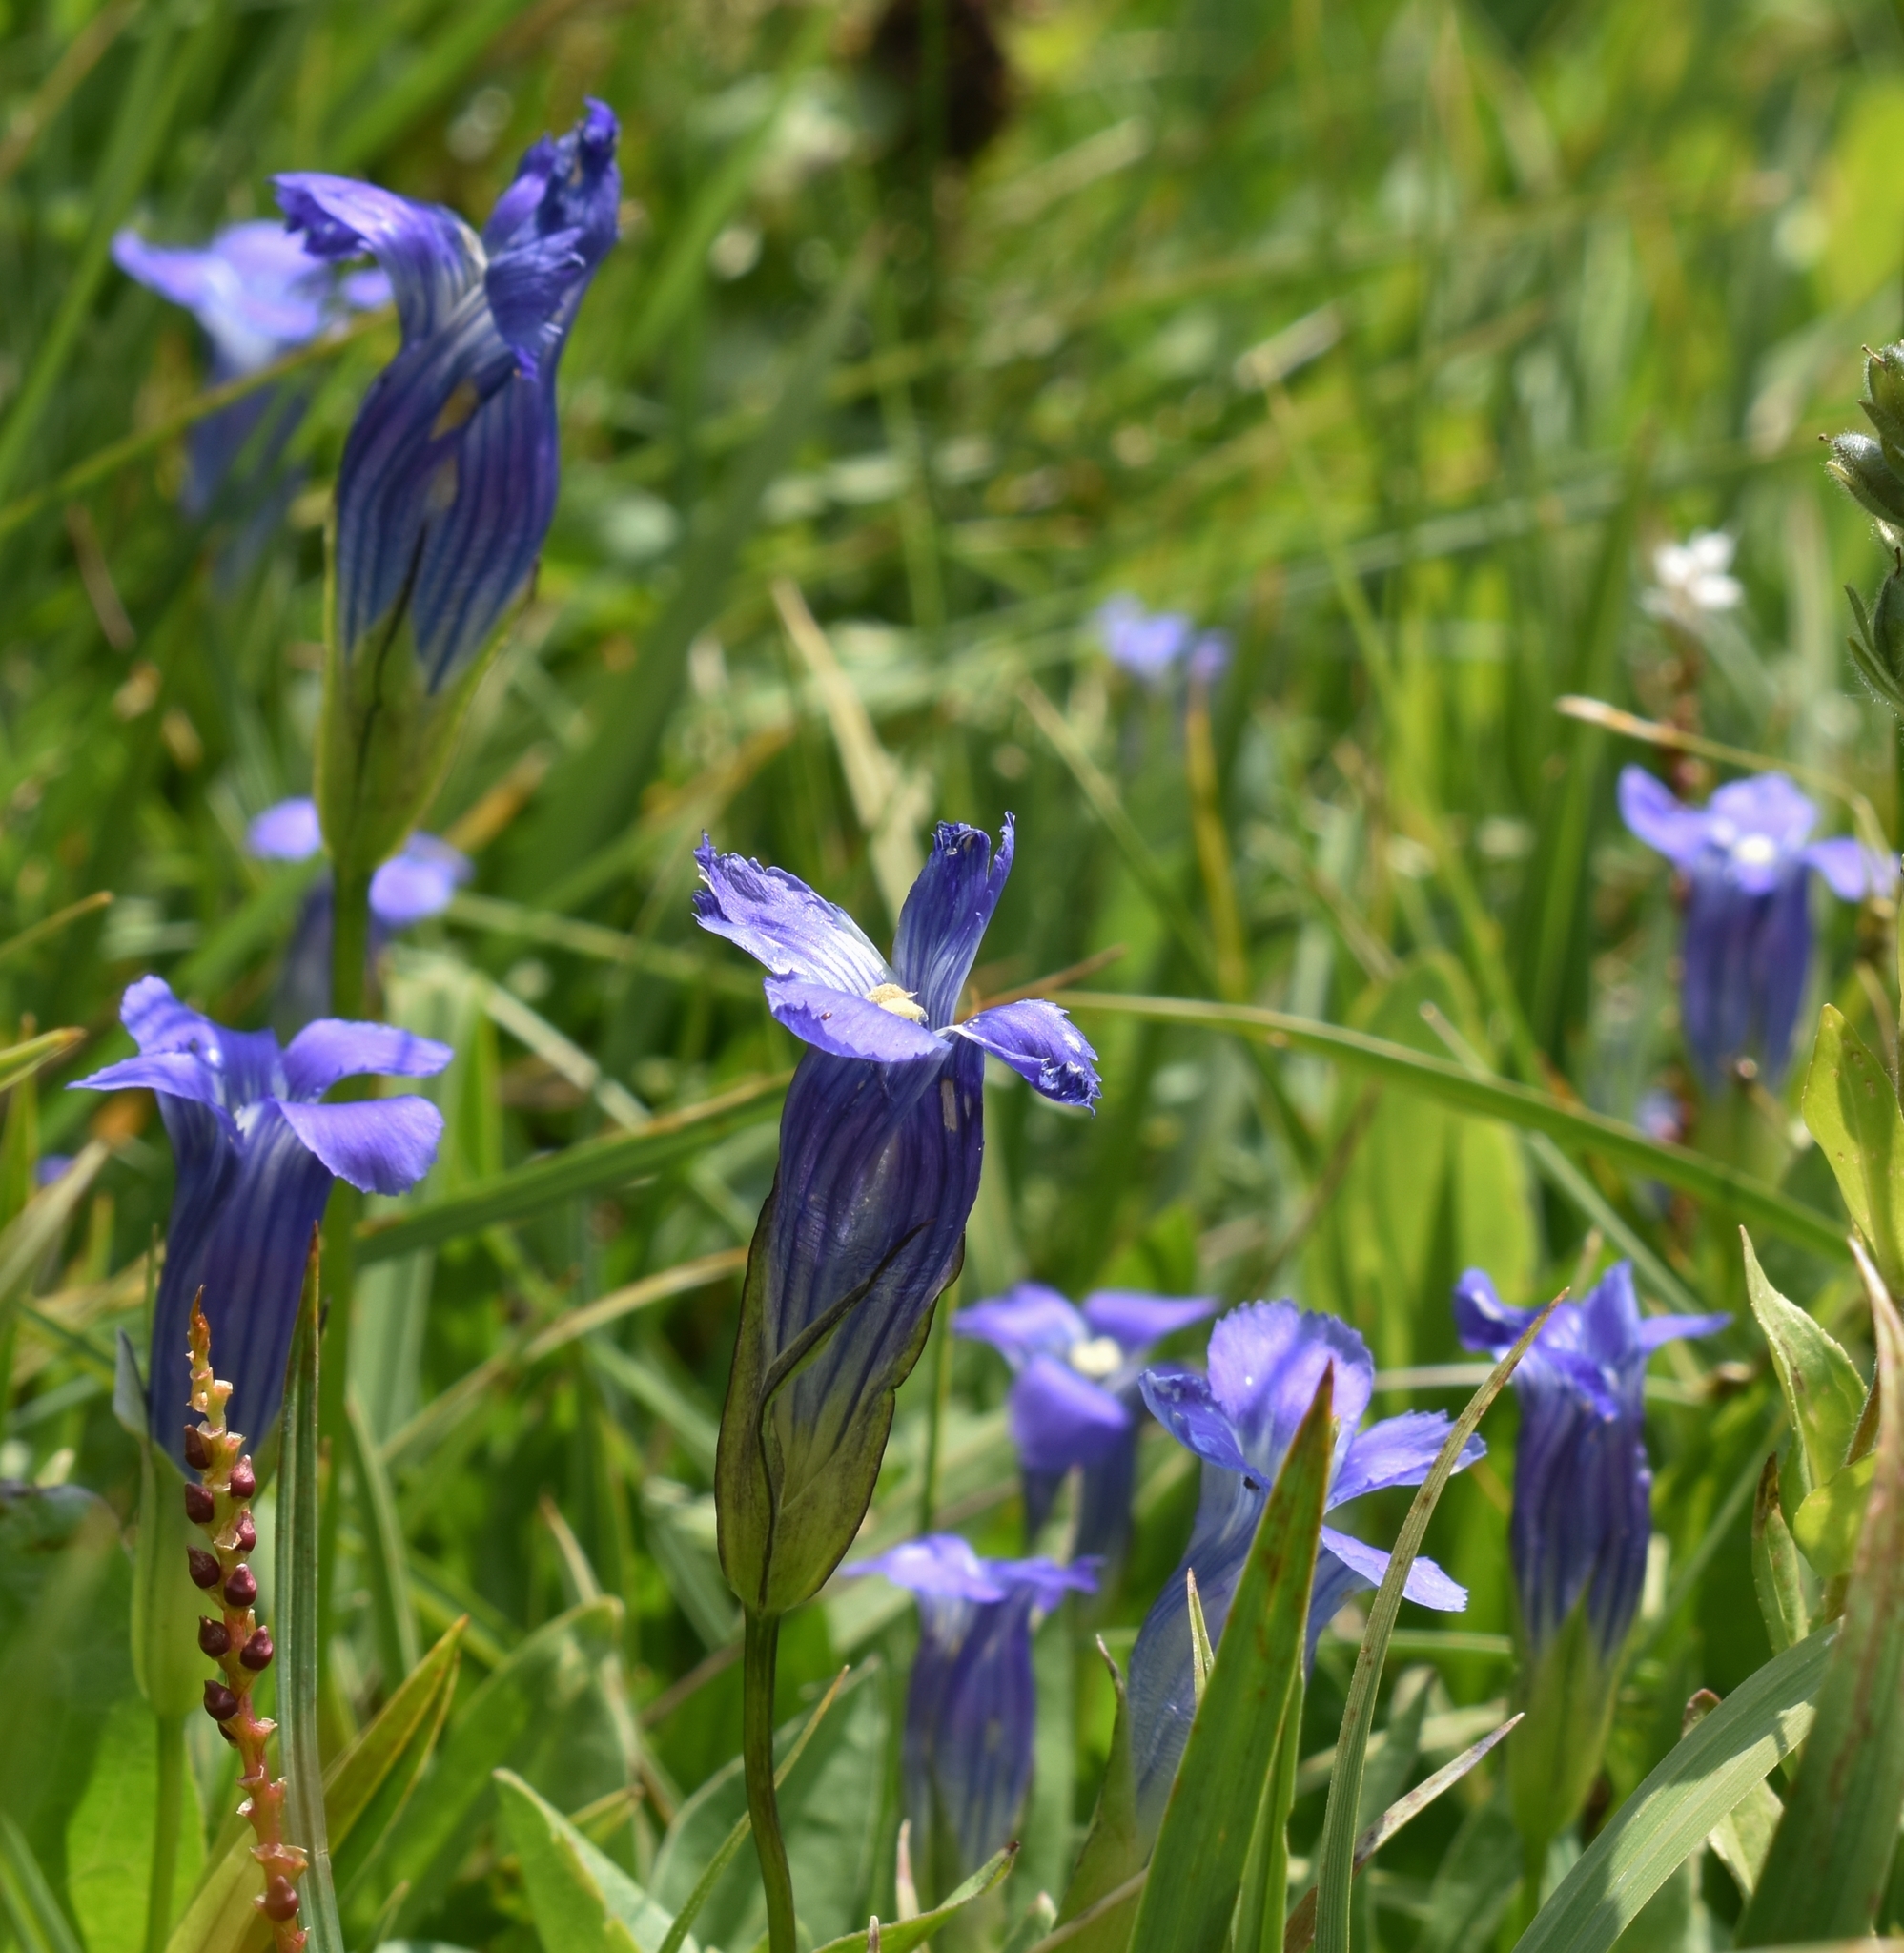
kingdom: Plantae
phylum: Tracheophyta
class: Magnoliopsida
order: Gentianales
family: Gentianaceae
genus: Gentianopsis
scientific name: Gentianopsis thermalis
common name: Rocky mountain fringed-gentian
